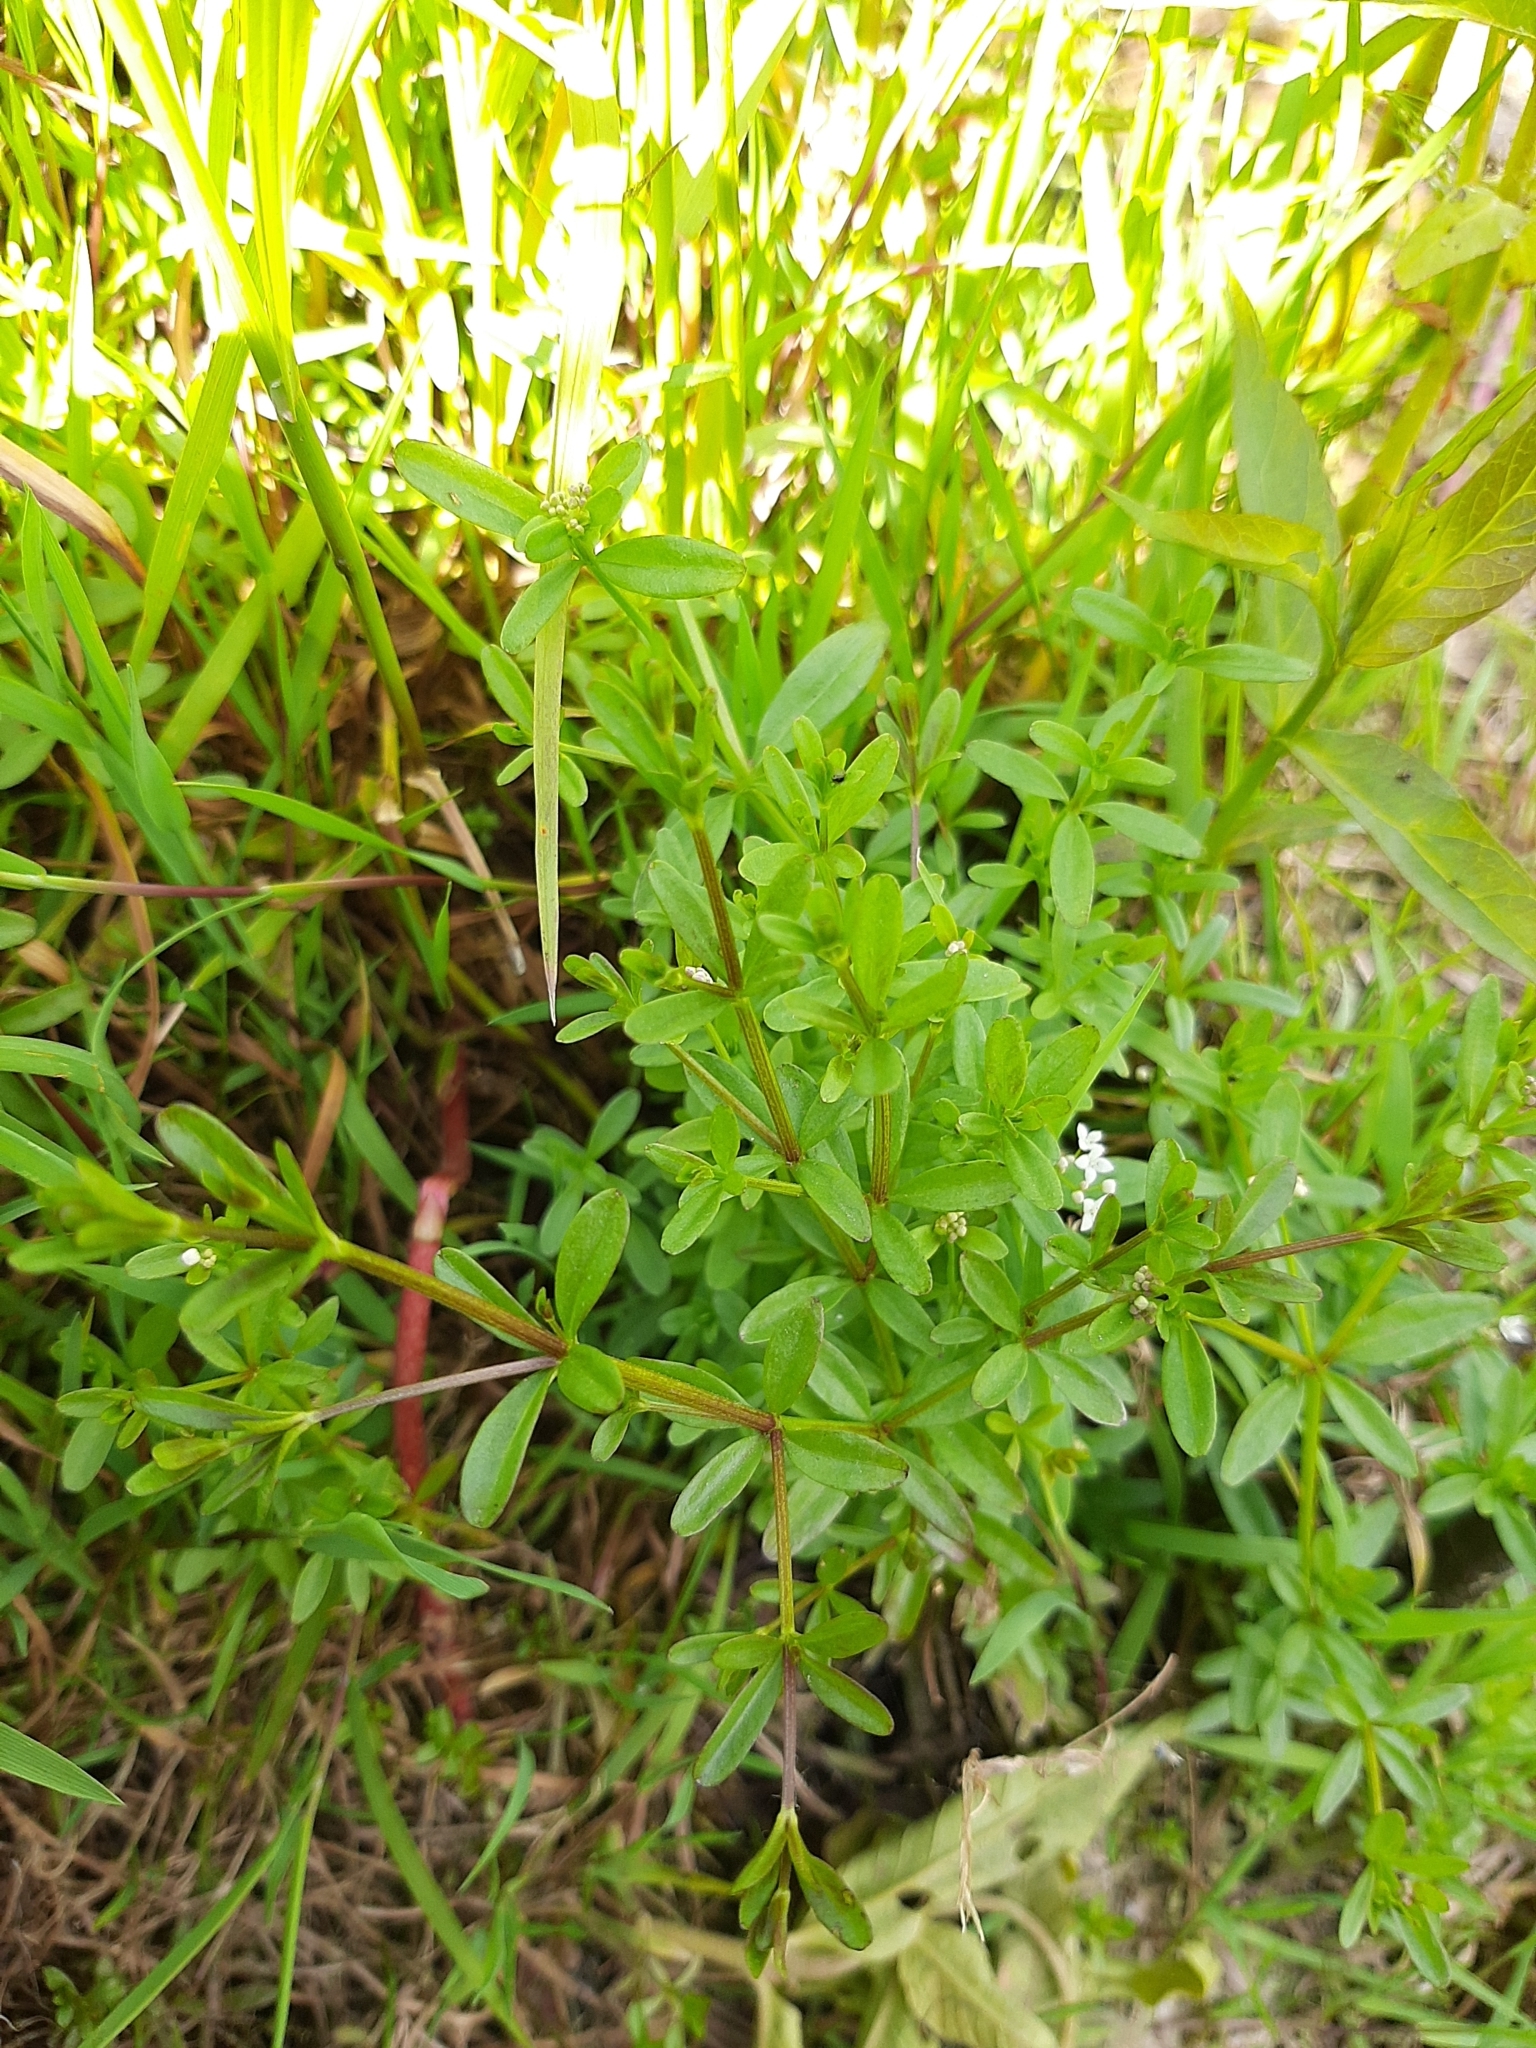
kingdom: Plantae
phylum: Tracheophyta
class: Magnoliopsida
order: Gentianales
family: Rubiaceae
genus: Galium
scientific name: Galium palustre
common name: Common marsh-bedstraw
